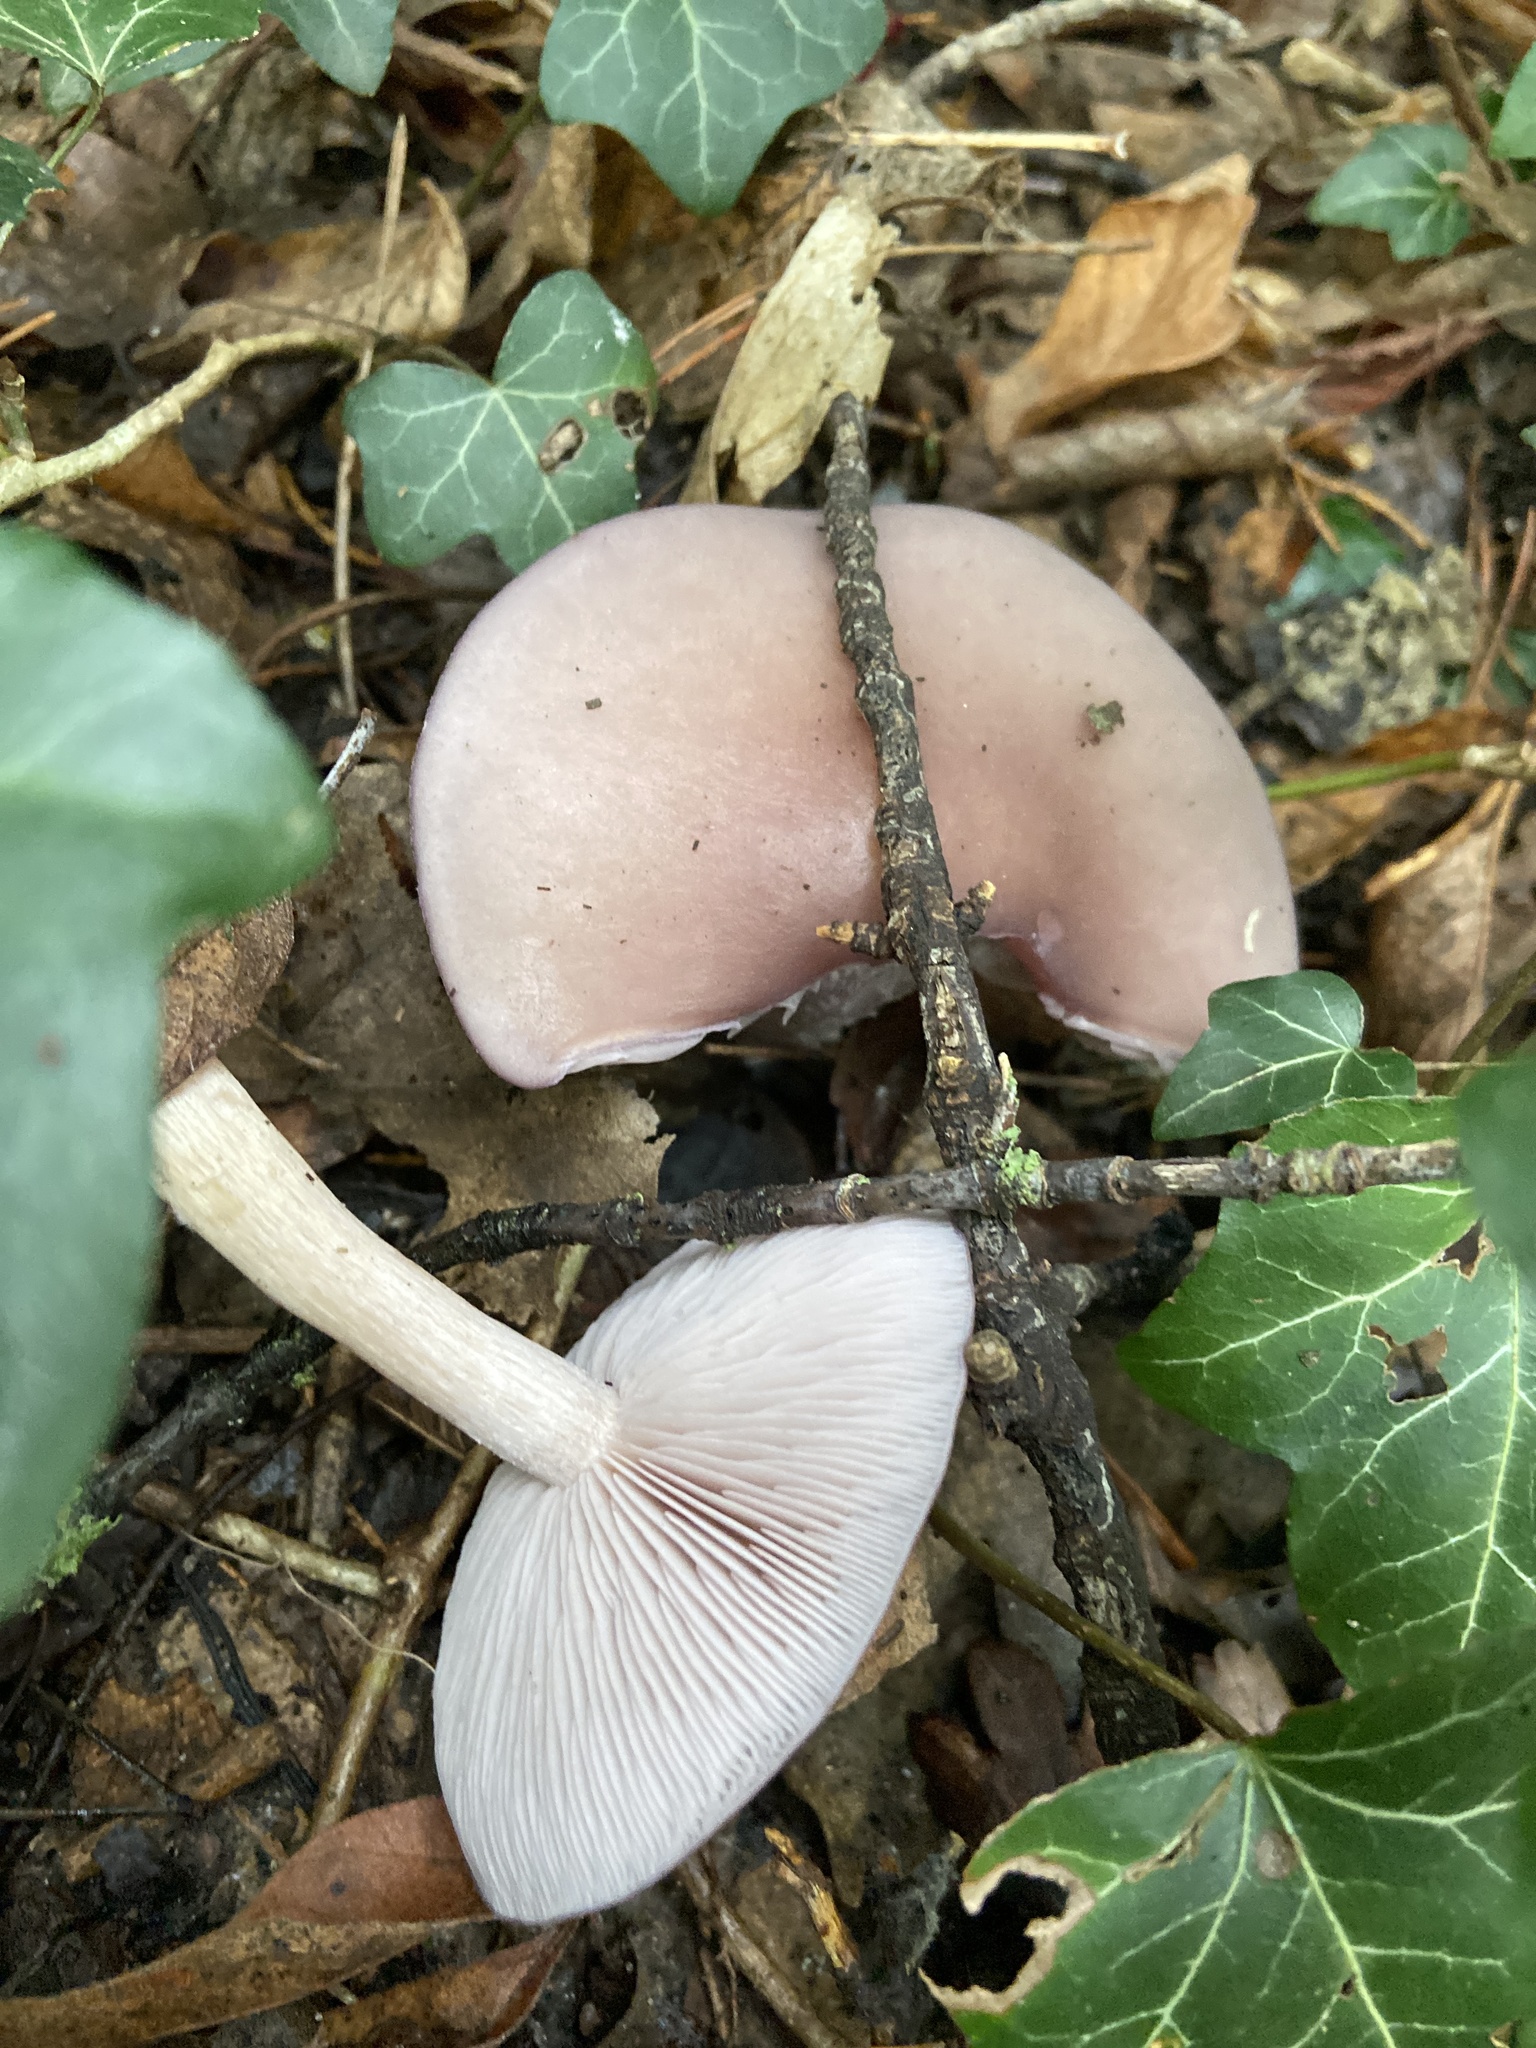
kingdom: Fungi
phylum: Basidiomycota
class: Agaricomycetes
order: Agaricales
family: Tricholomataceae
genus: Collybia
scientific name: Collybia
